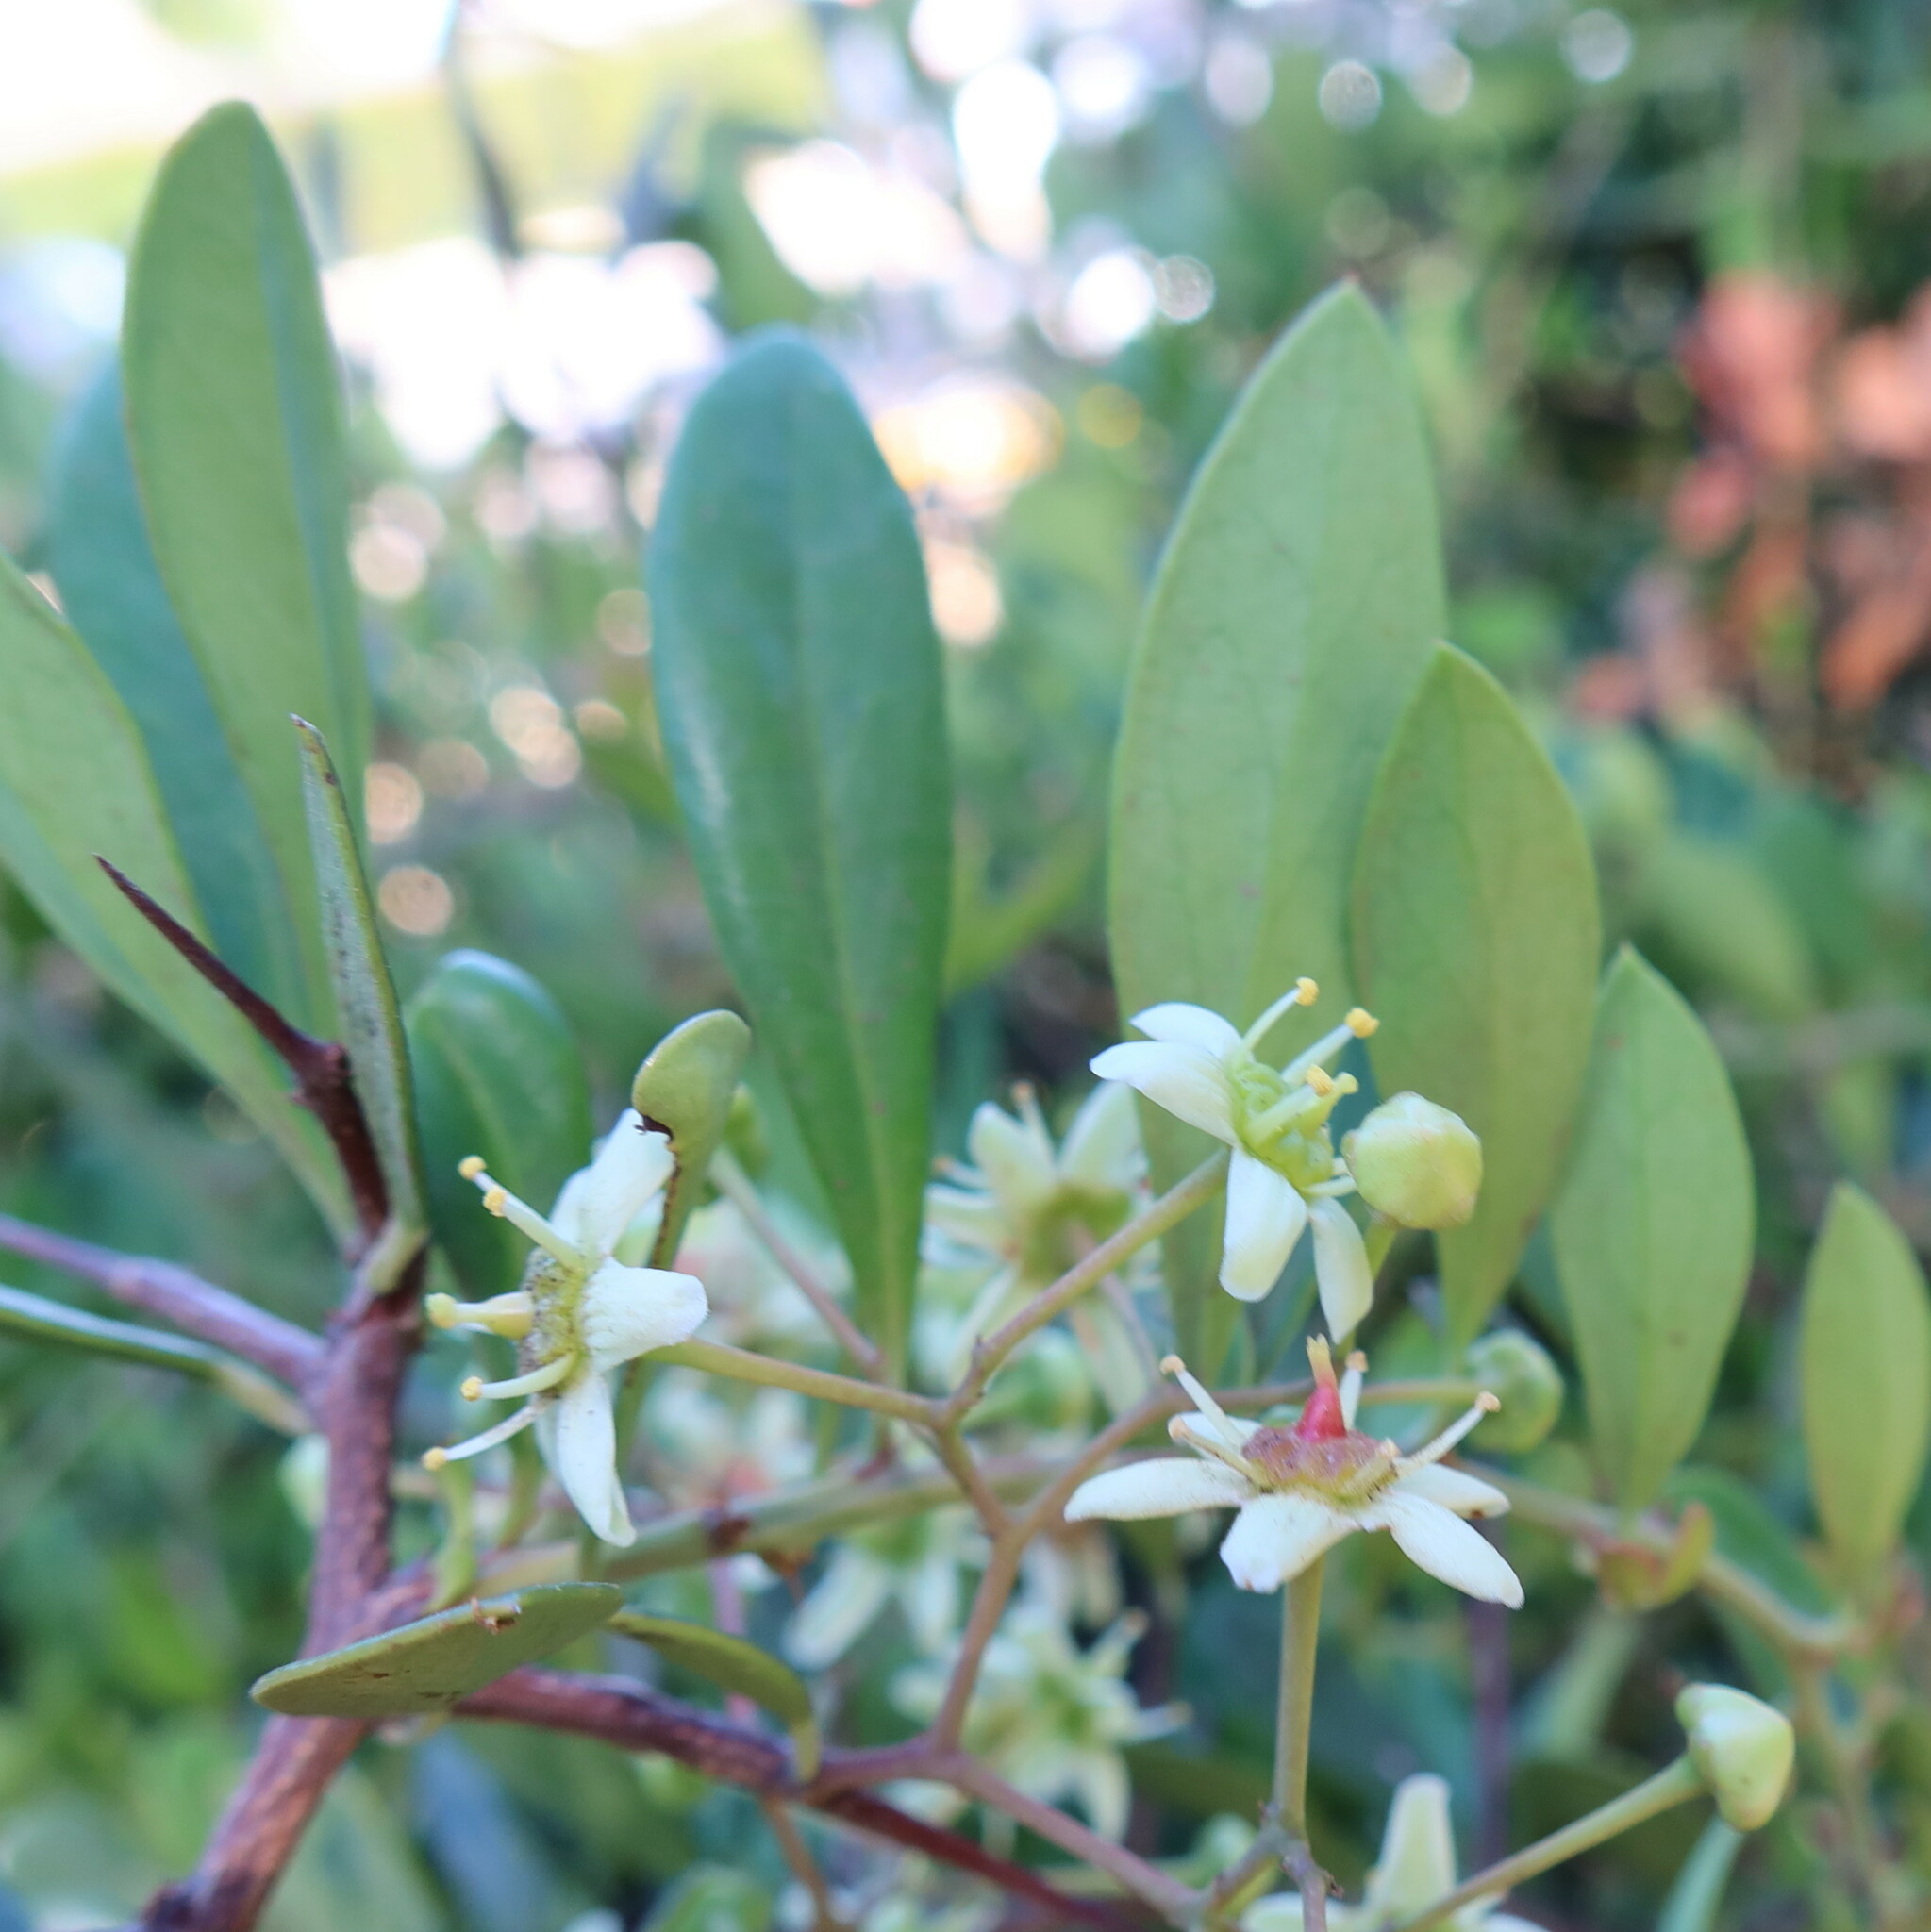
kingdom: Plantae
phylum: Tracheophyta
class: Magnoliopsida
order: Celastrales
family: Celastraceae
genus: Putterlickia
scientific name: Putterlickia pyracantha
